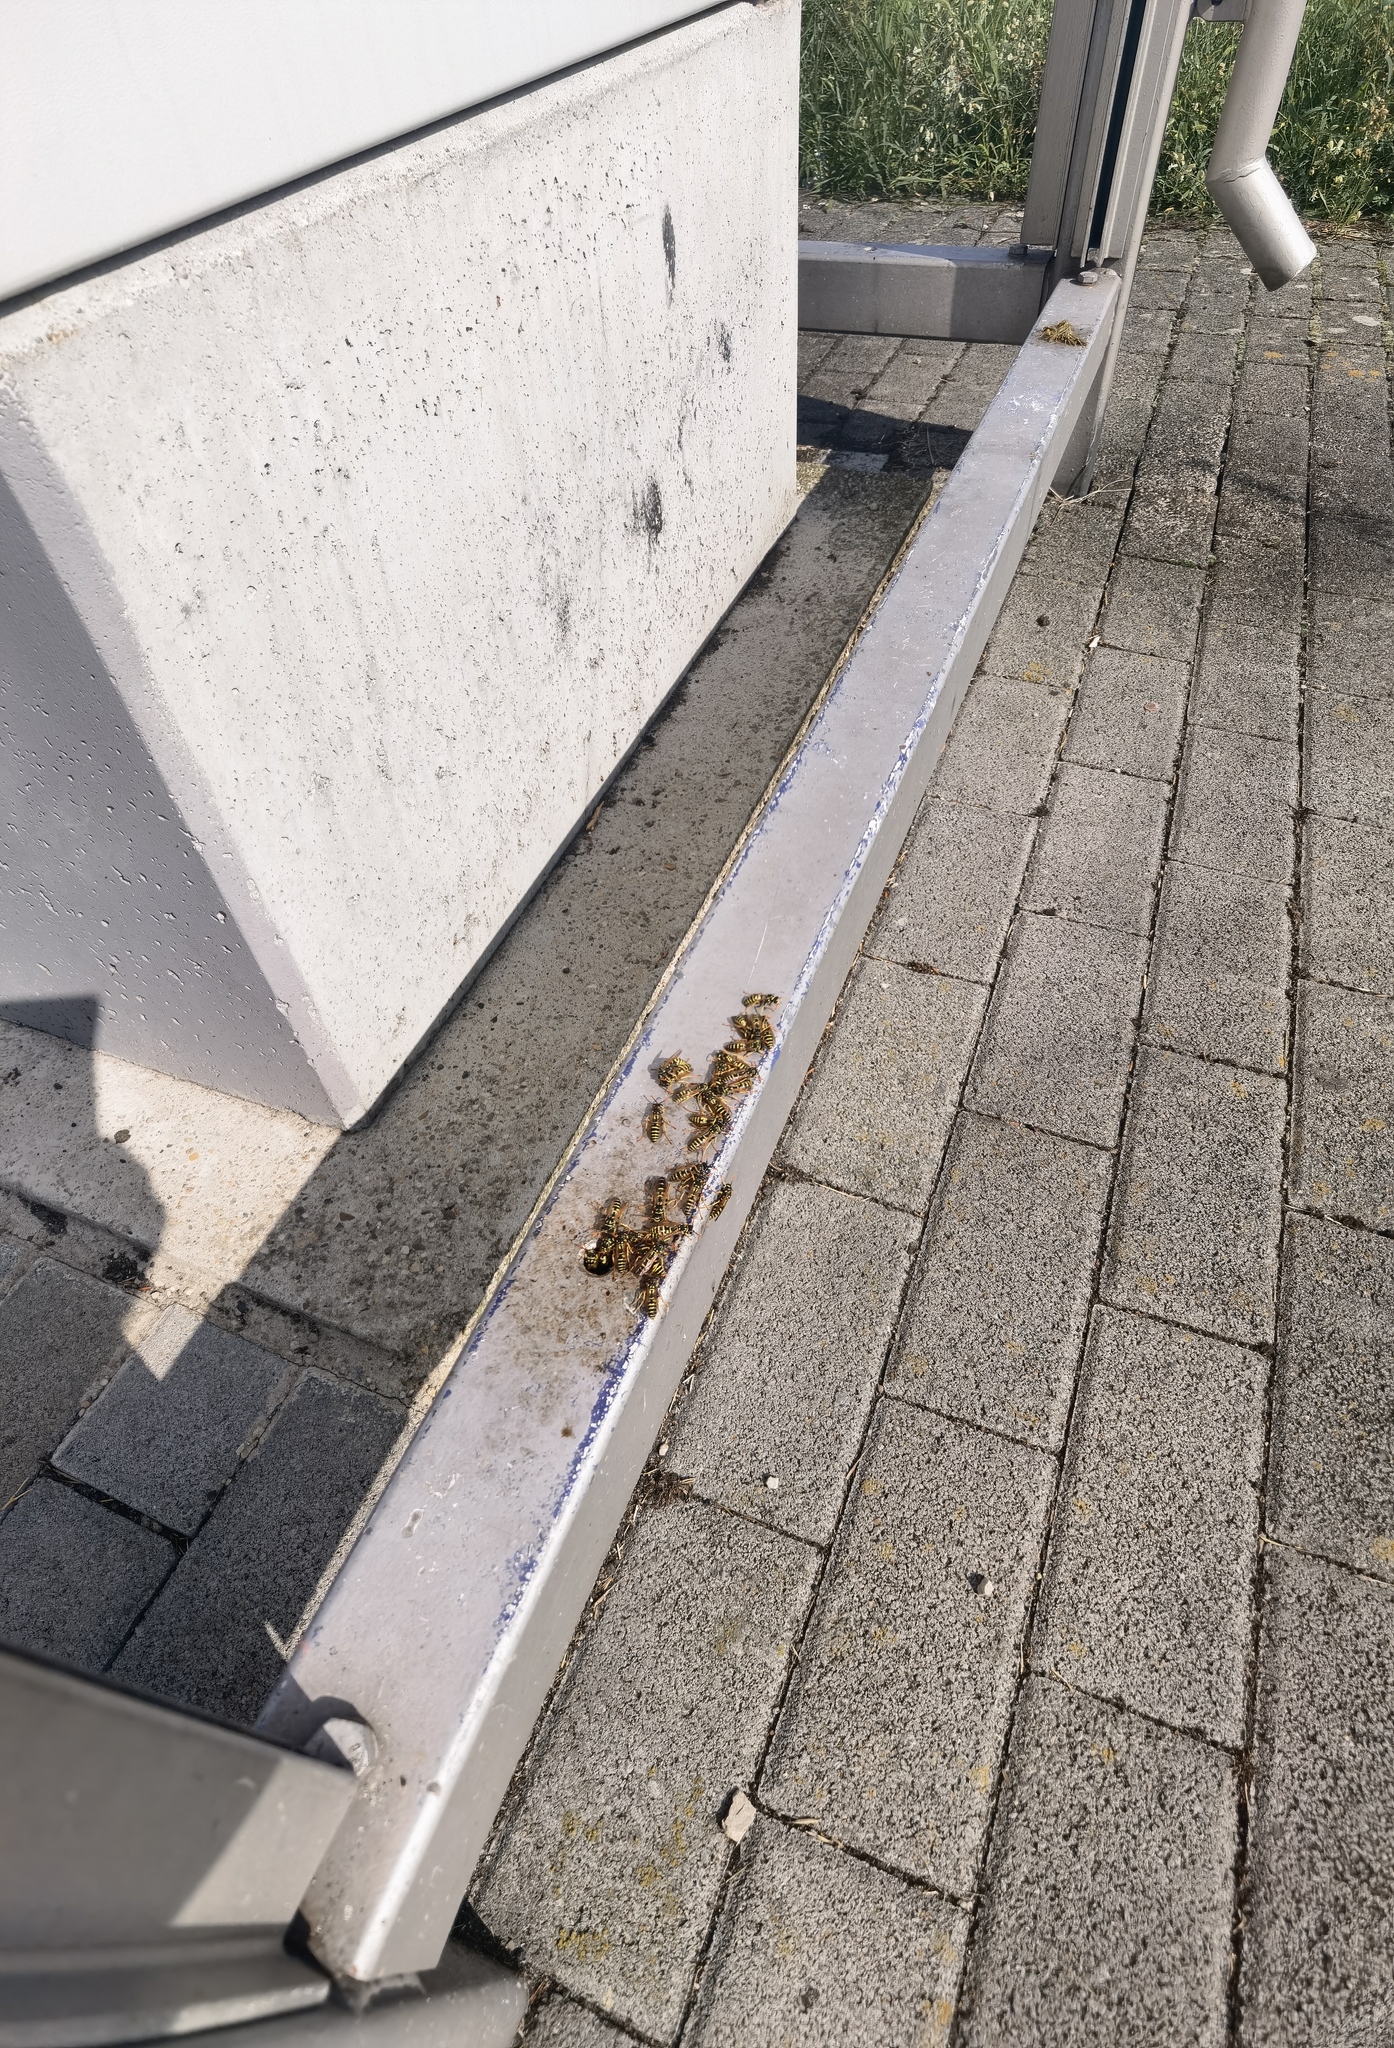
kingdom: Animalia
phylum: Arthropoda
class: Insecta
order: Hymenoptera
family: Eumenidae
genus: Polistes
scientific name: Polistes dominula
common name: Paper wasp
